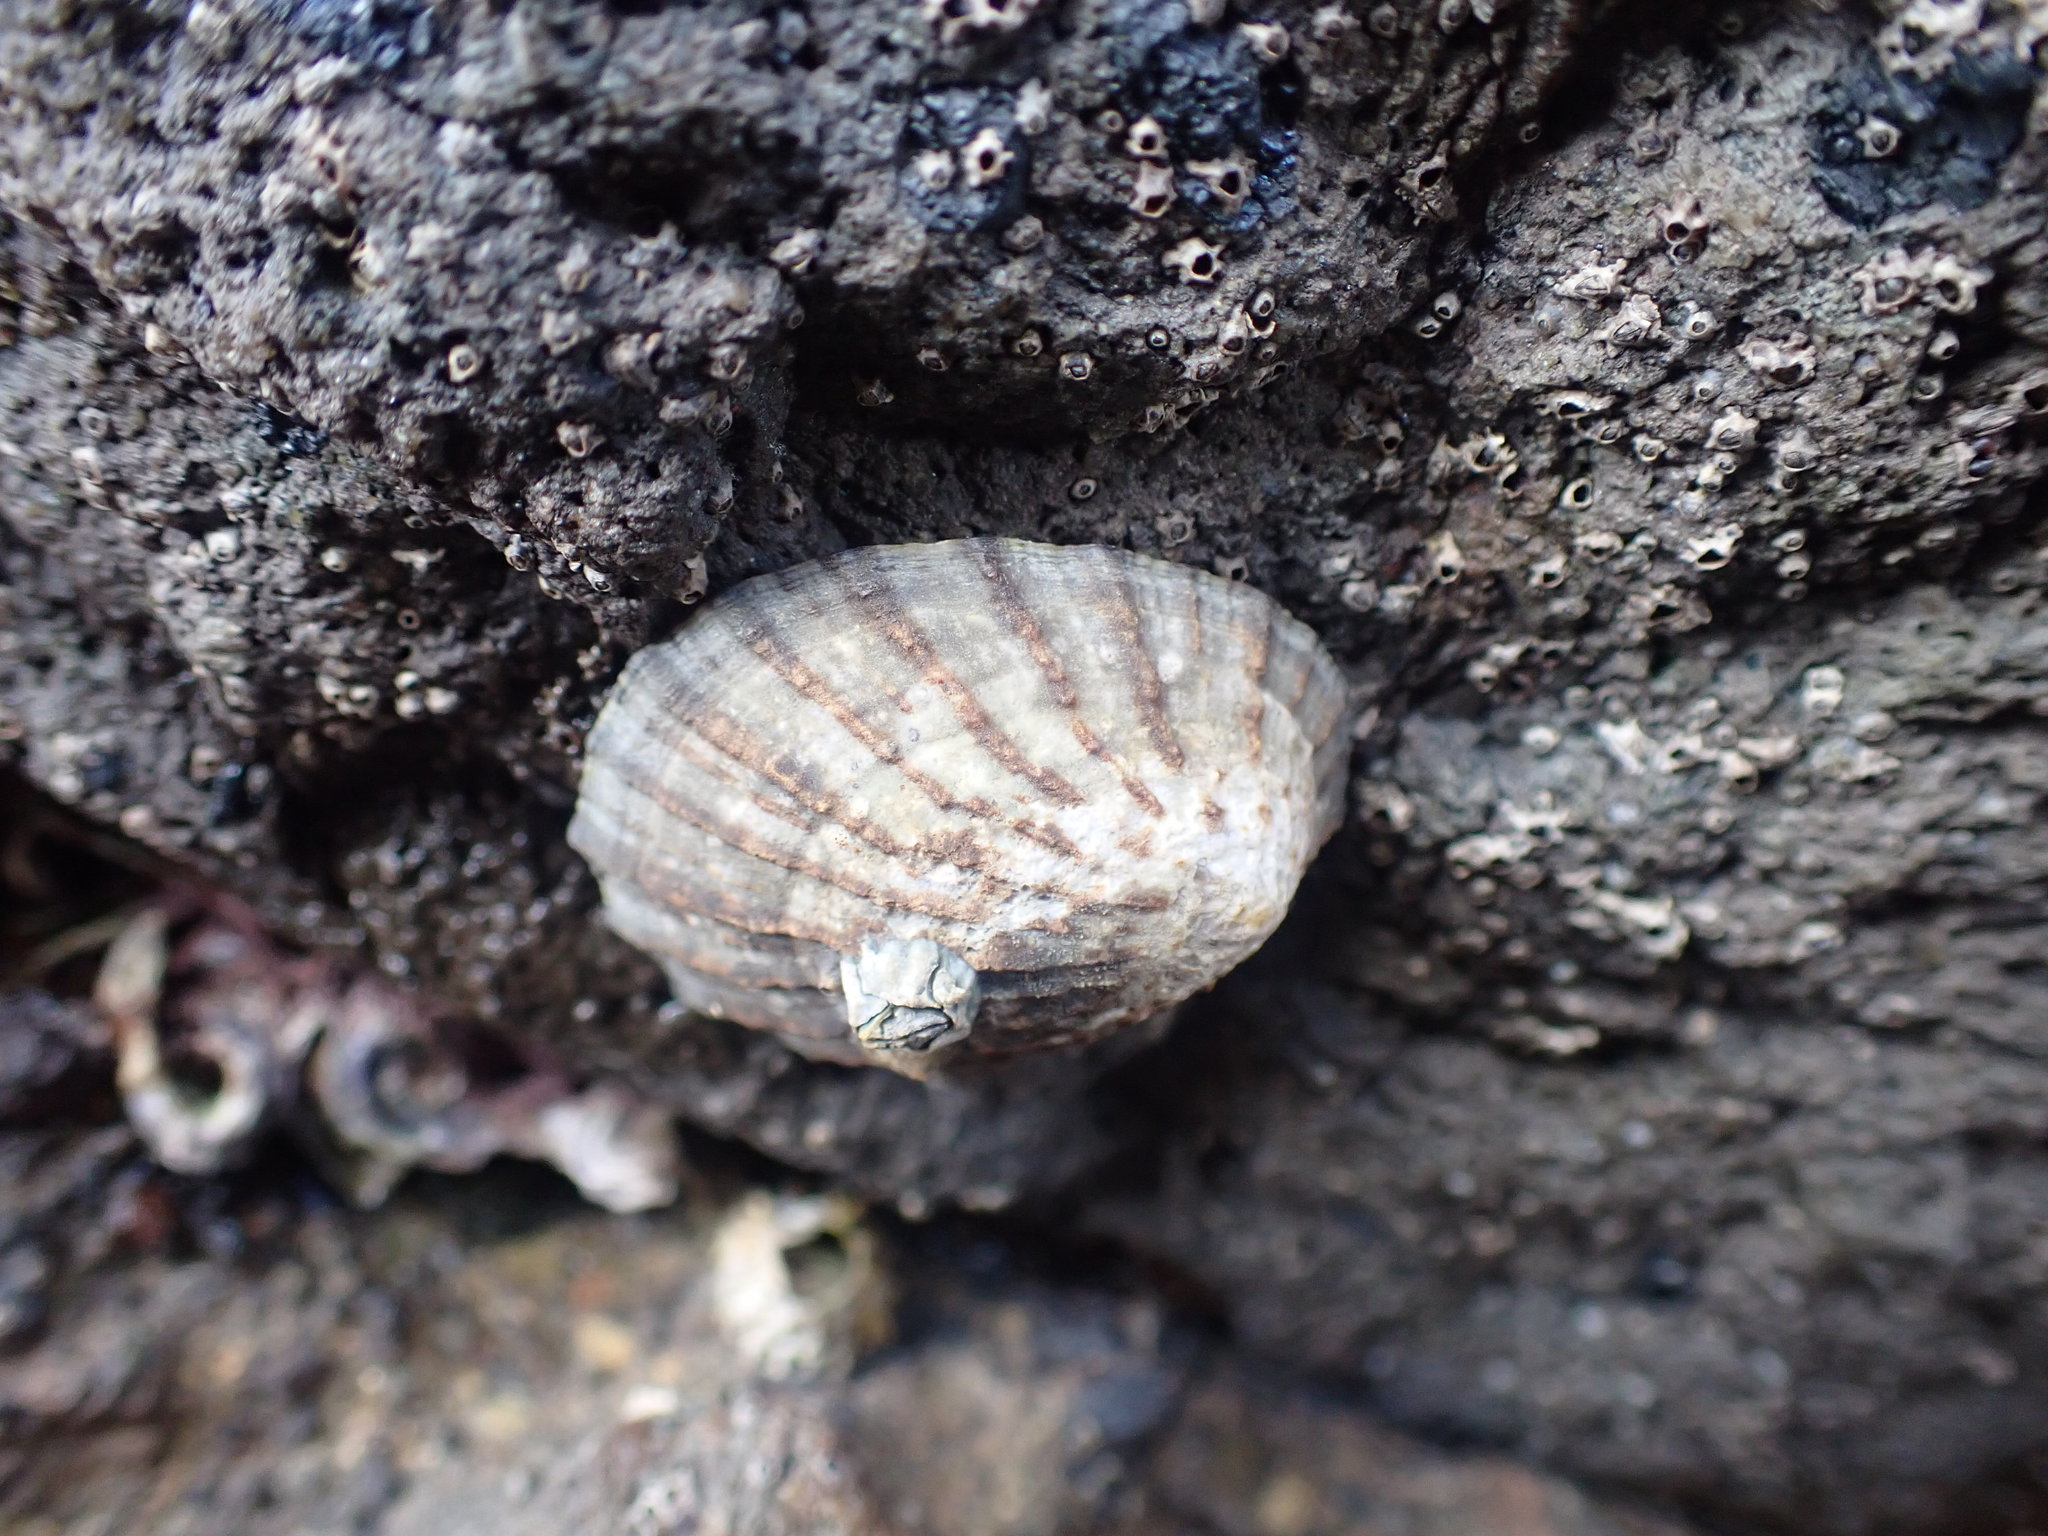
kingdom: Animalia
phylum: Mollusca
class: Gastropoda
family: Nacellidae
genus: Cellana
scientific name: Cellana radians
